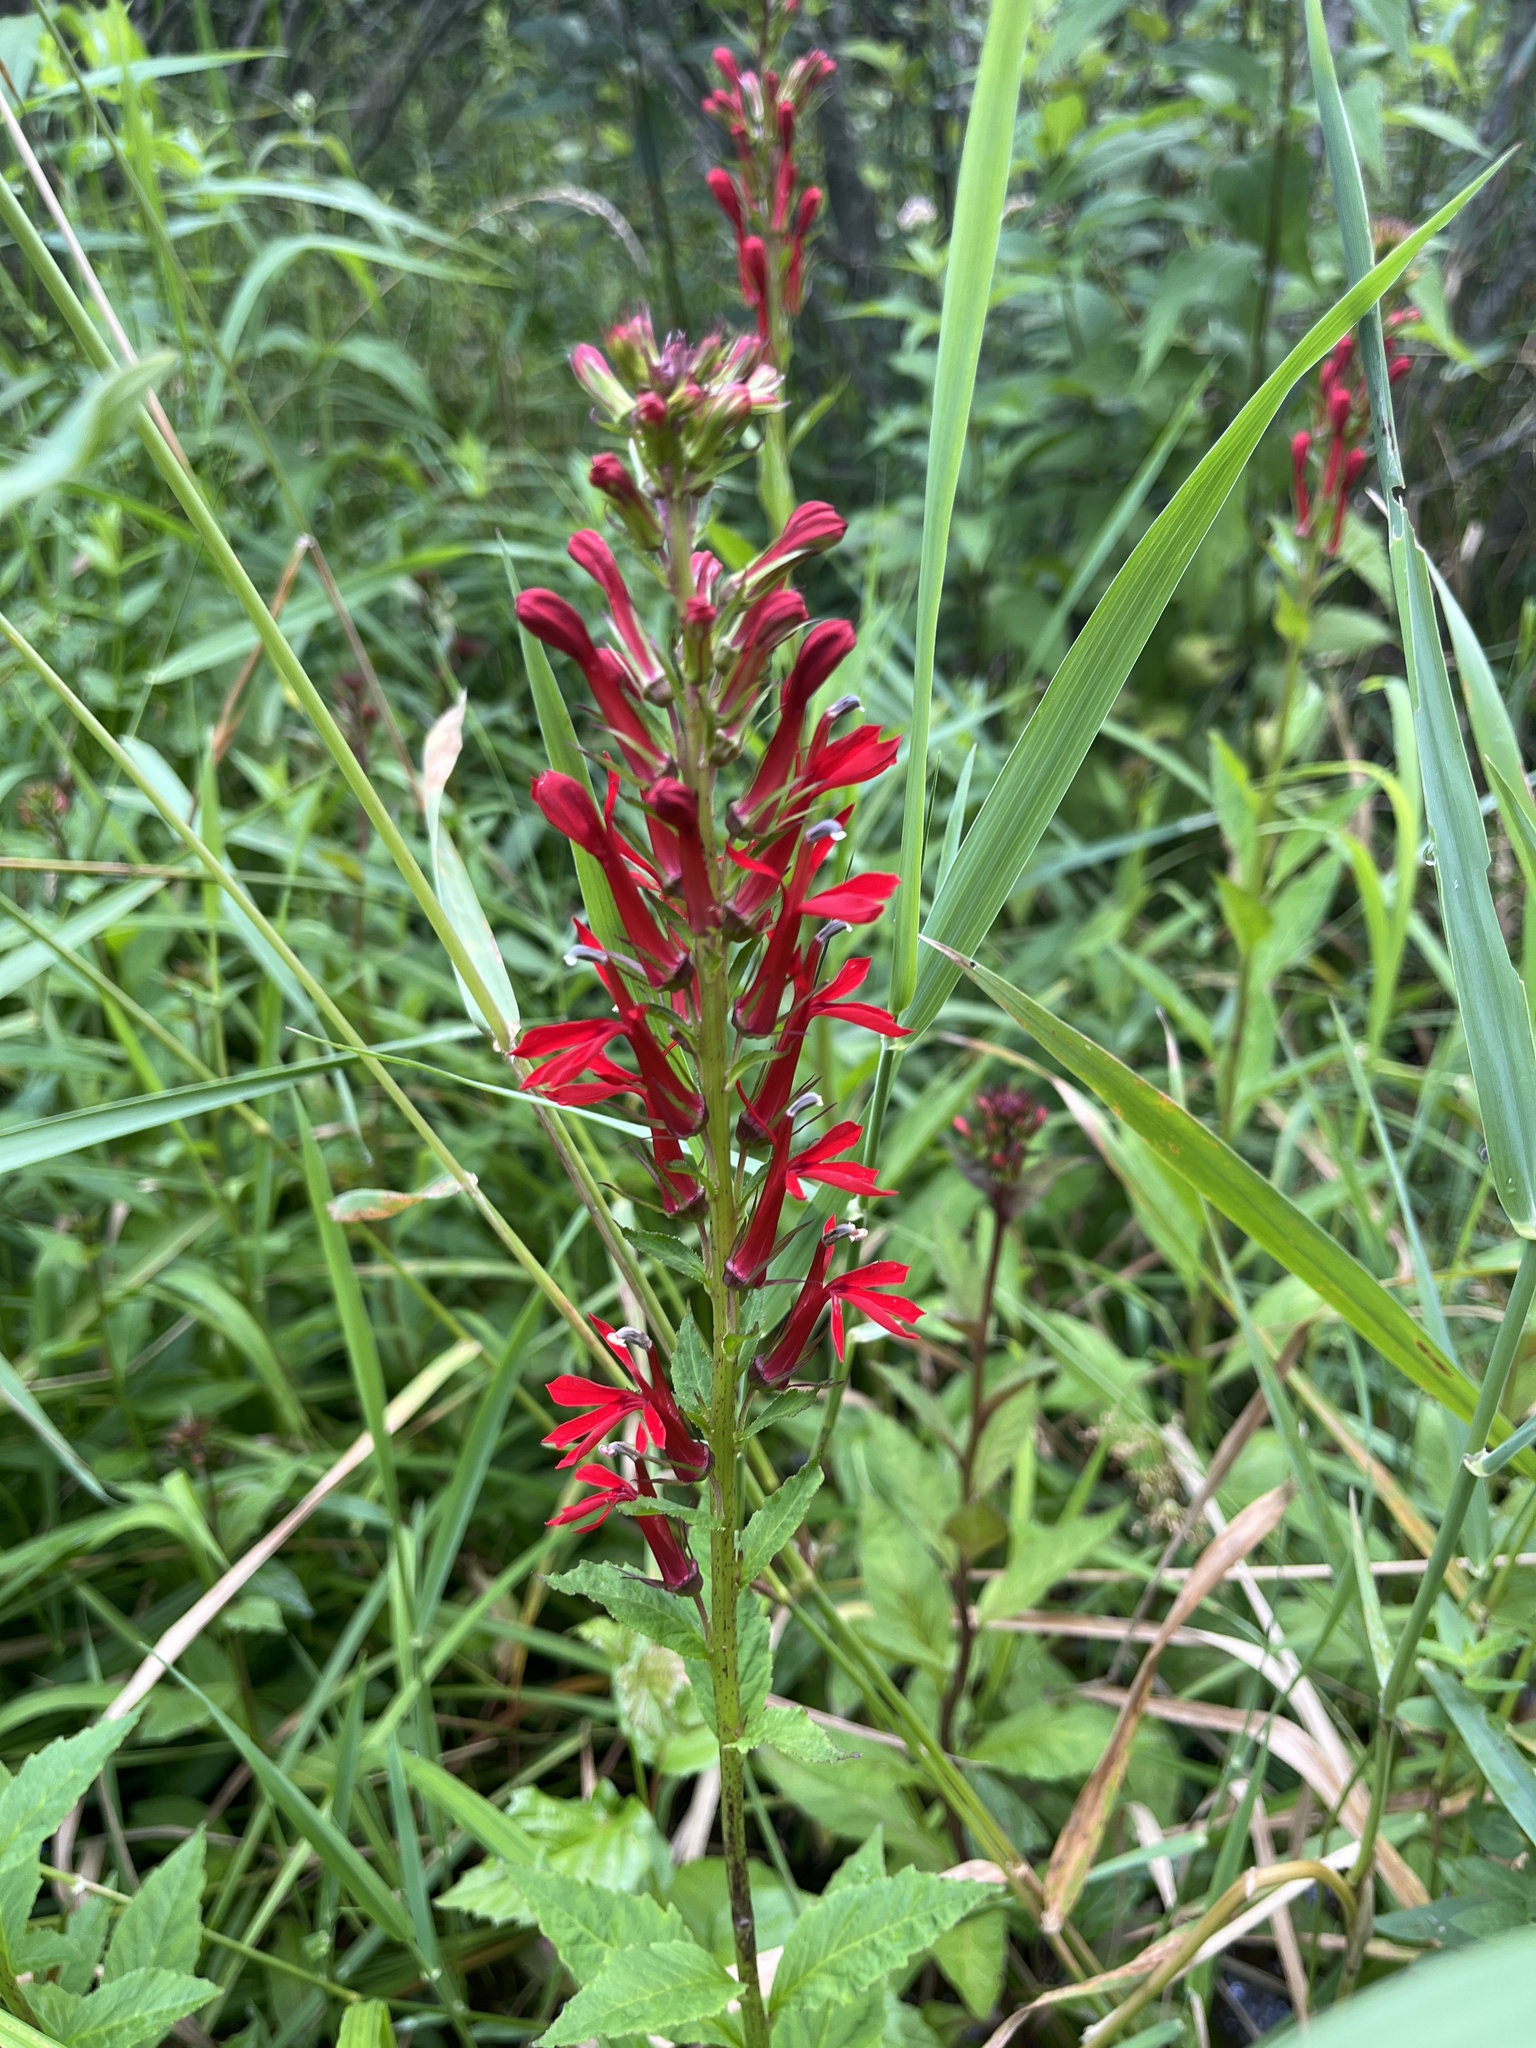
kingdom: Plantae
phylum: Tracheophyta
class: Magnoliopsida
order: Asterales
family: Campanulaceae
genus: Lobelia
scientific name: Lobelia cardinalis
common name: Cardinal flower
